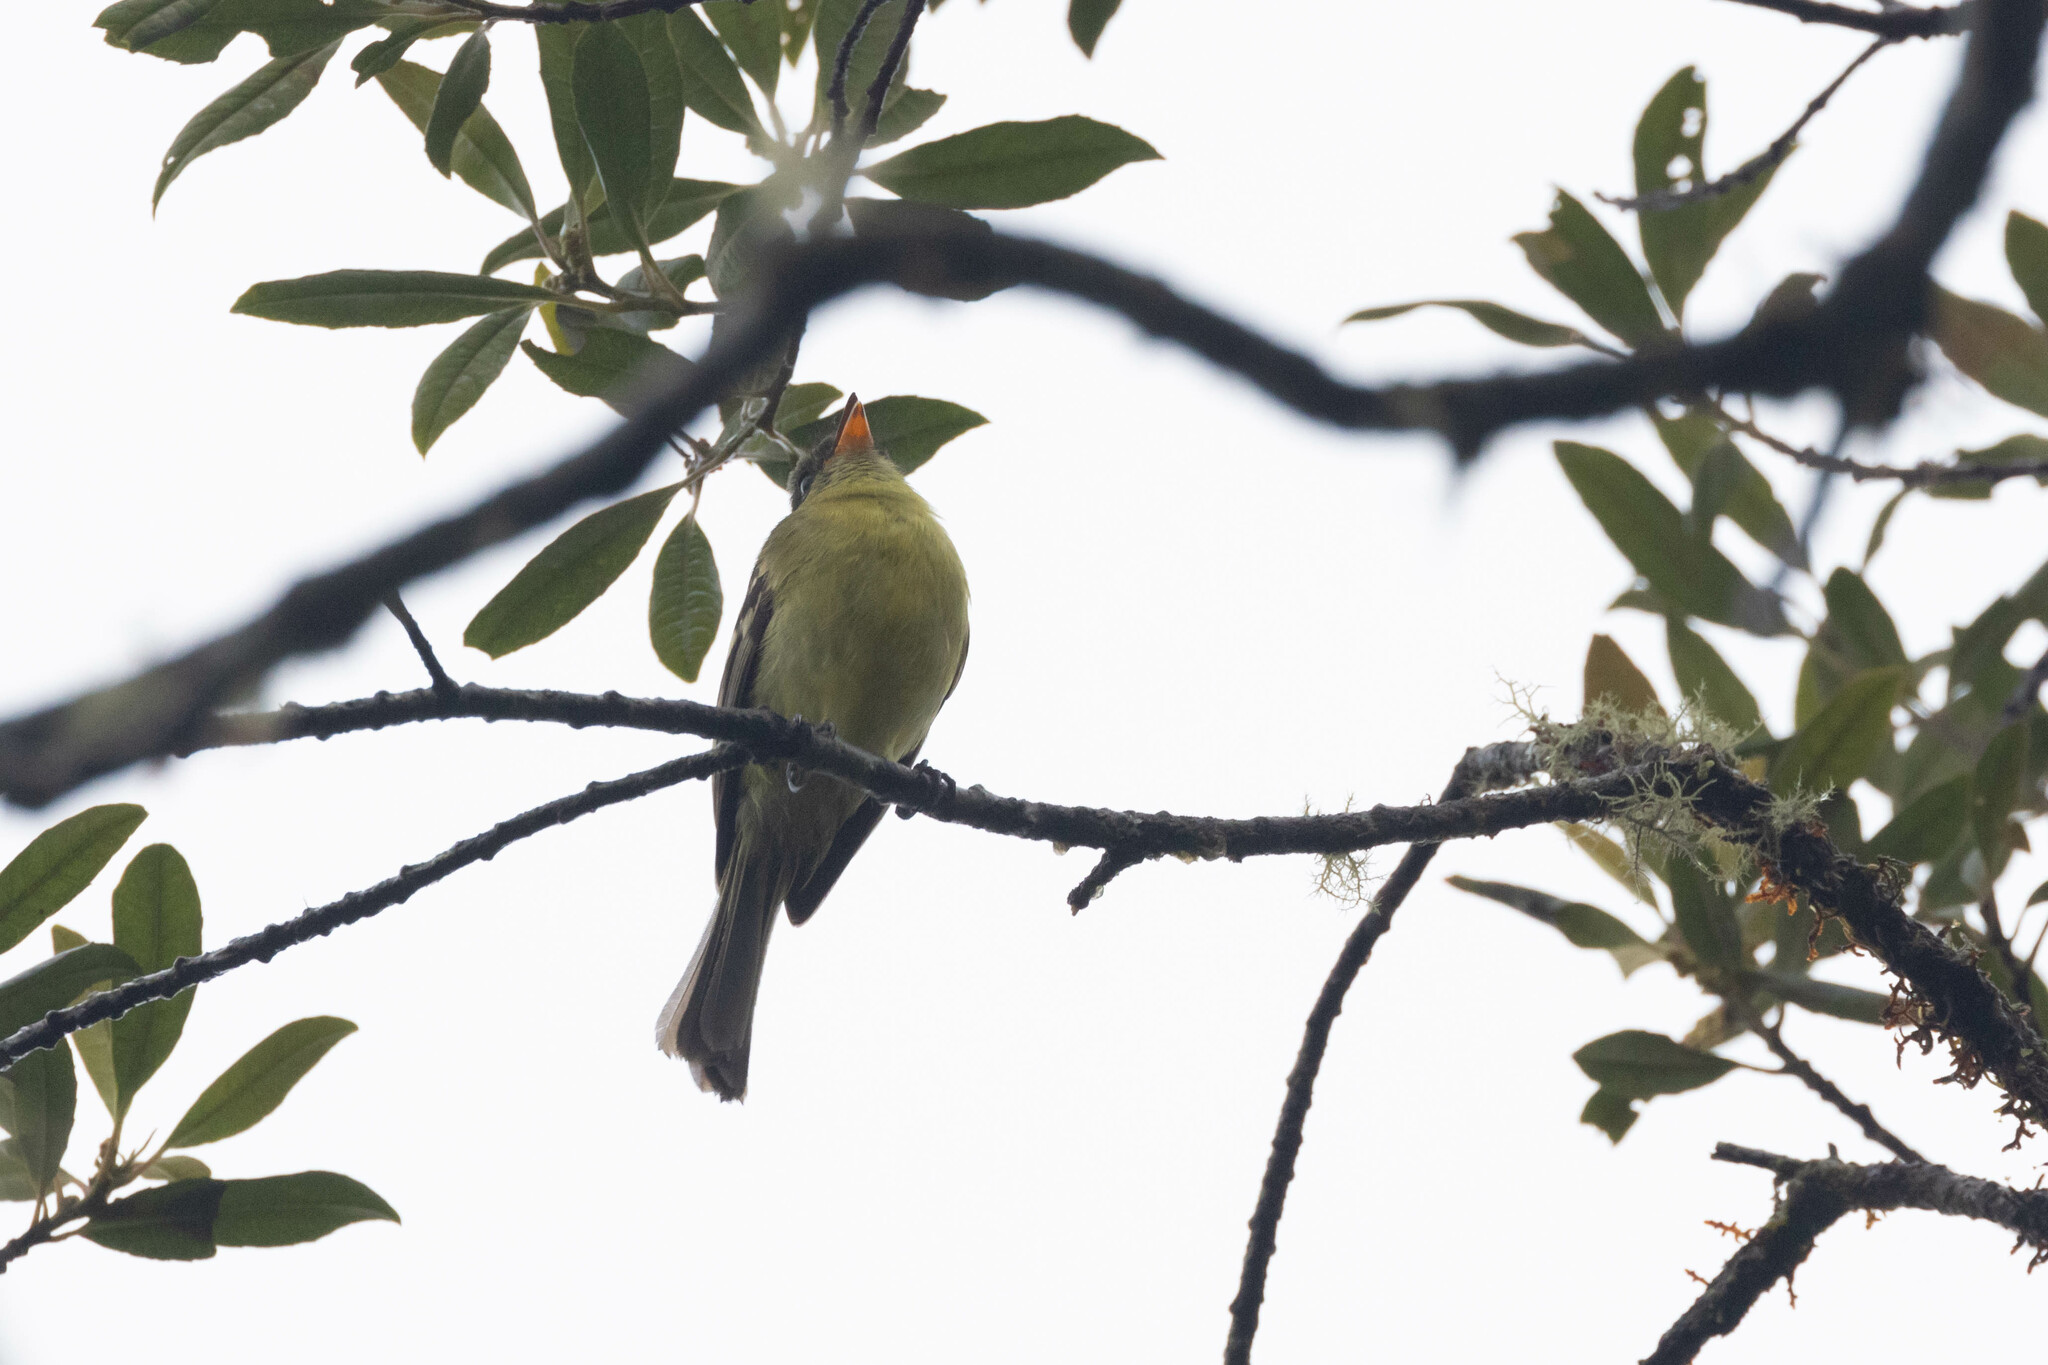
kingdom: Animalia
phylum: Chordata
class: Aves
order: Passeriformes
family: Tyrannidae
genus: Myiophobus
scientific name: Myiophobus lintoni
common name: Orange-banded flycatcher
